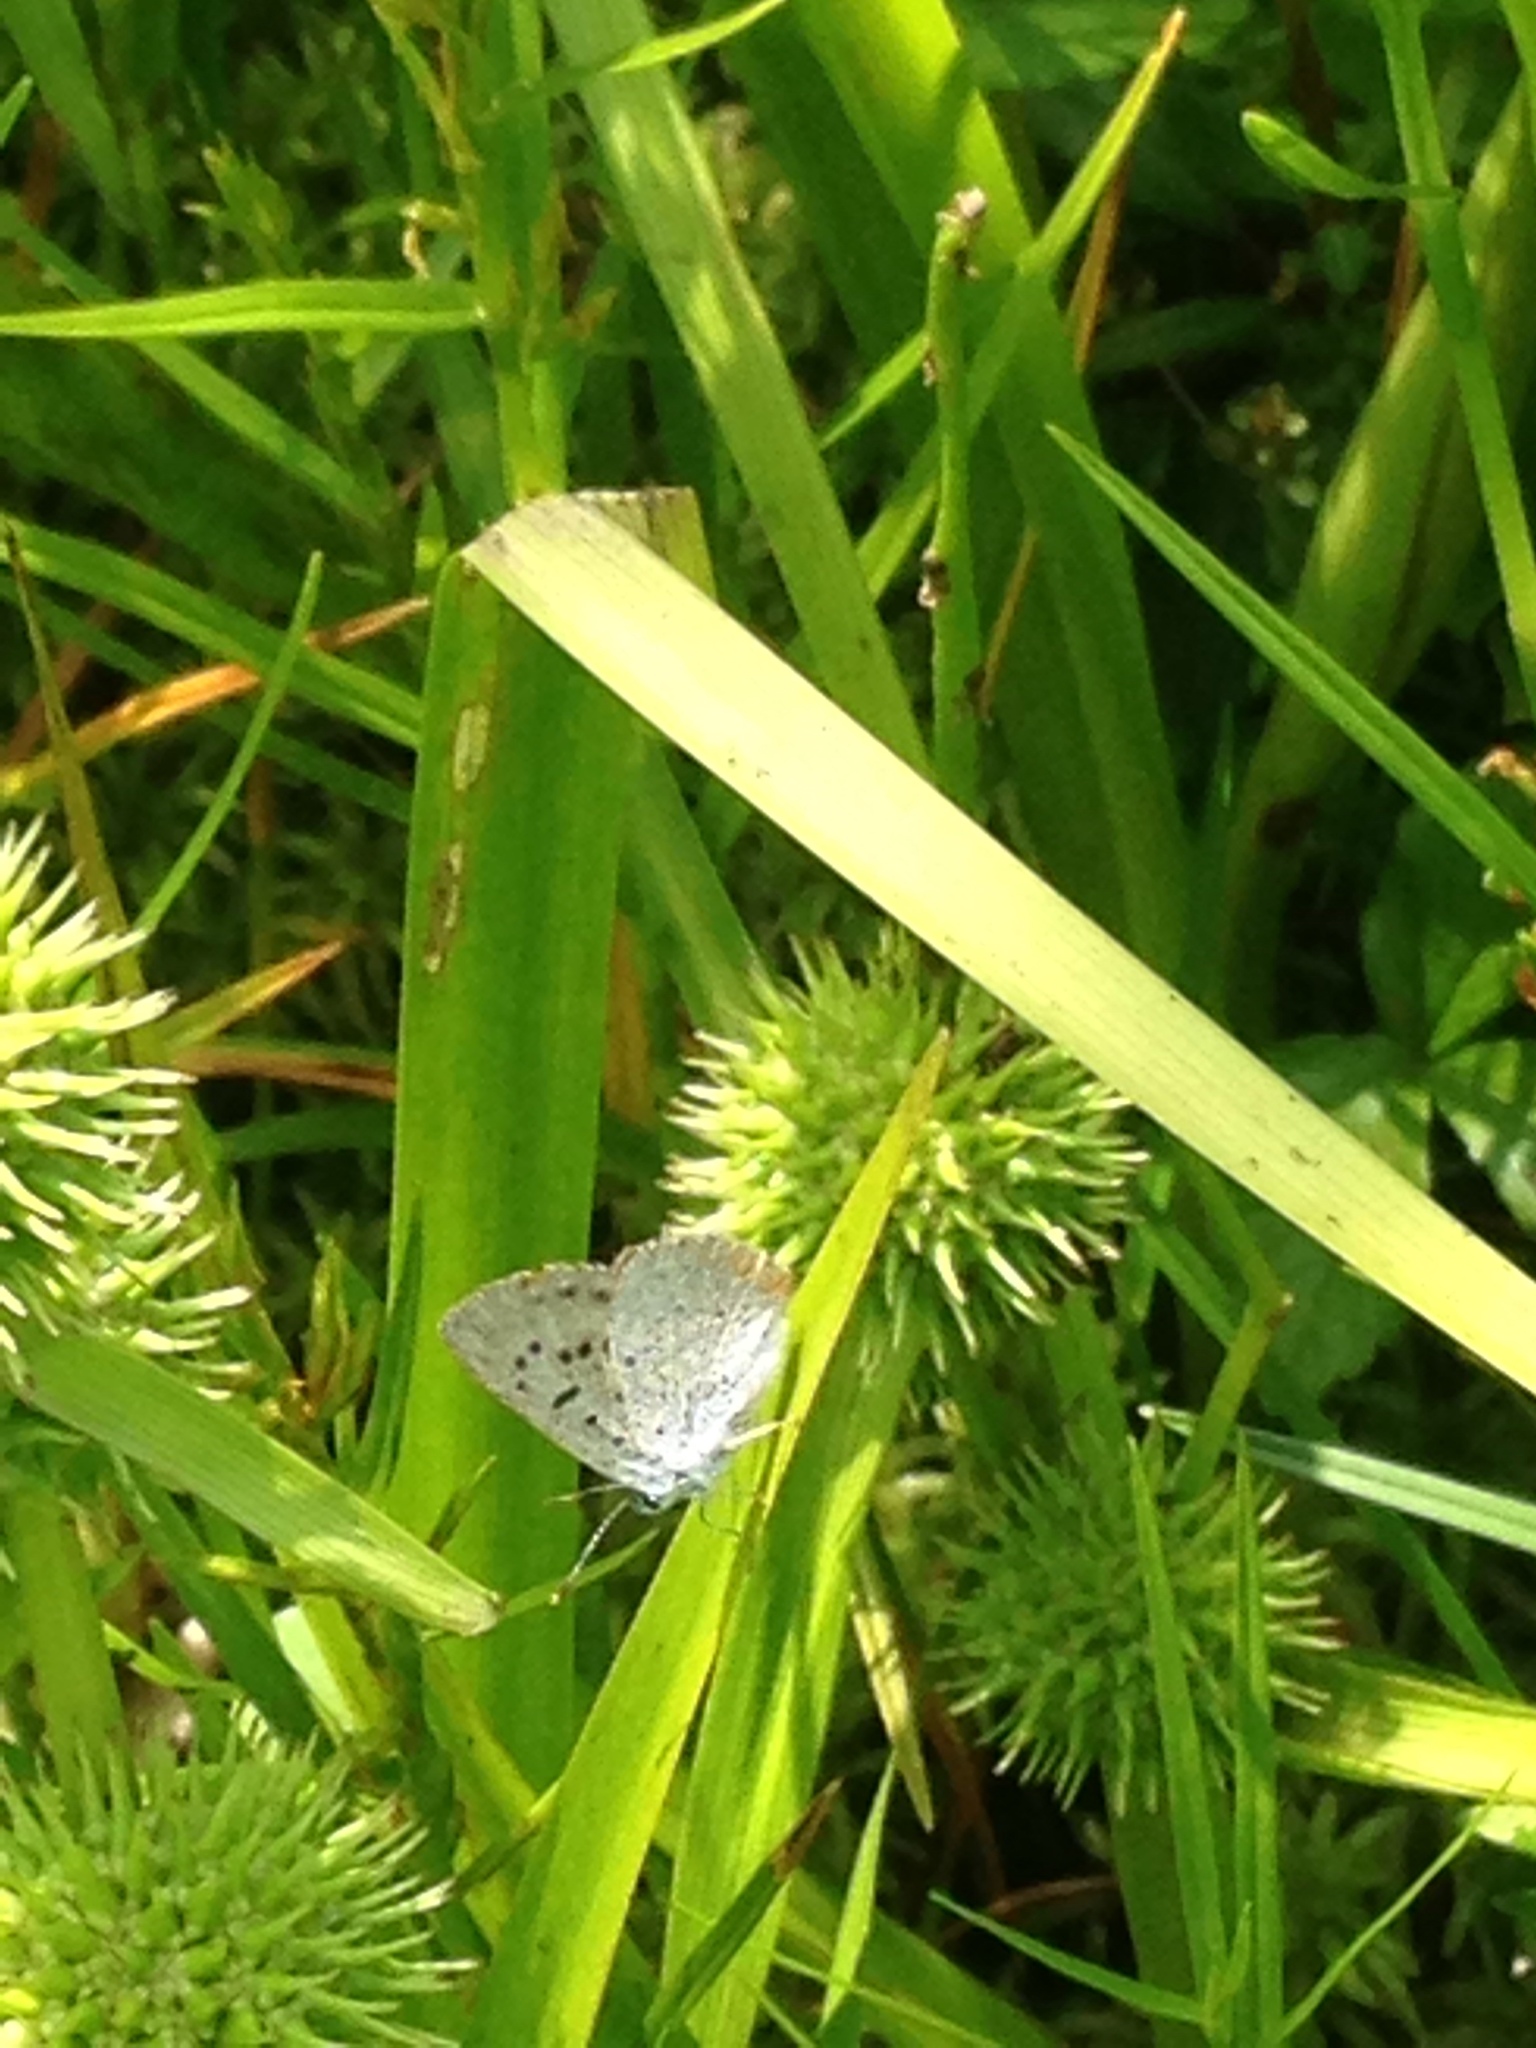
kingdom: Animalia
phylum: Arthropoda
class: Insecta
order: Lepidoptera
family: Lycaenidae
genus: Tharsalea
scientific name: Tharsalea epixanthe
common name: Bog copper
